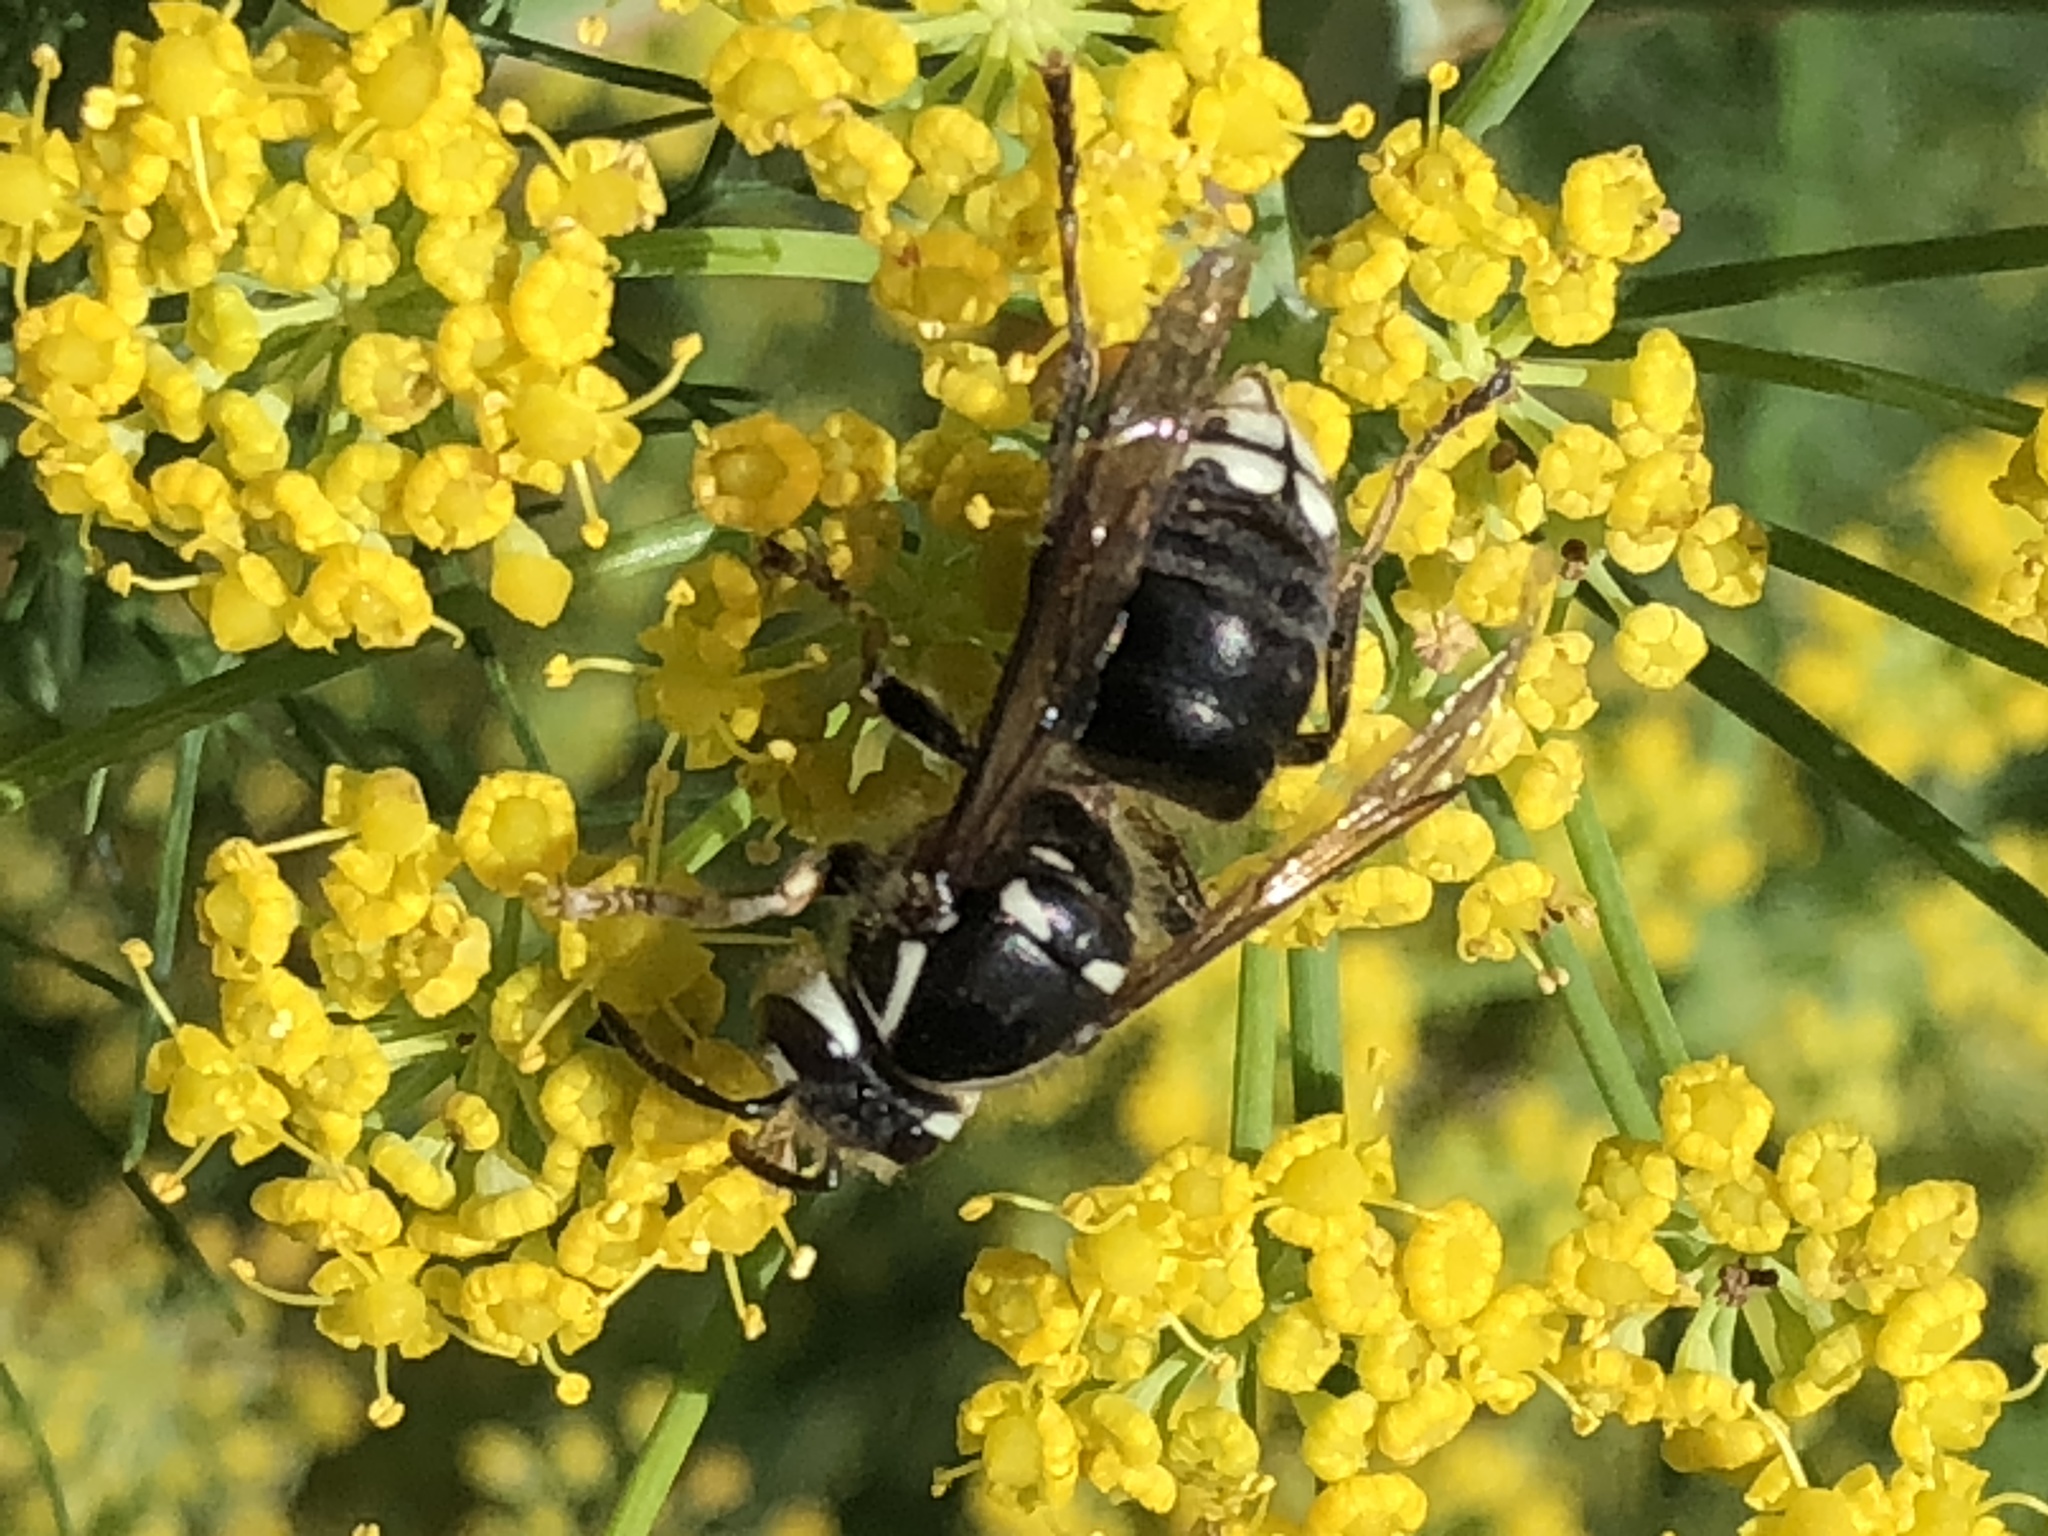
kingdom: Animalia
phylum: Arthropoda
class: Insecta
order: Hymenoptera
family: Vespidae
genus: Dolichovespula
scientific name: Dolichovespula maculata
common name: Bald-faced hornet
